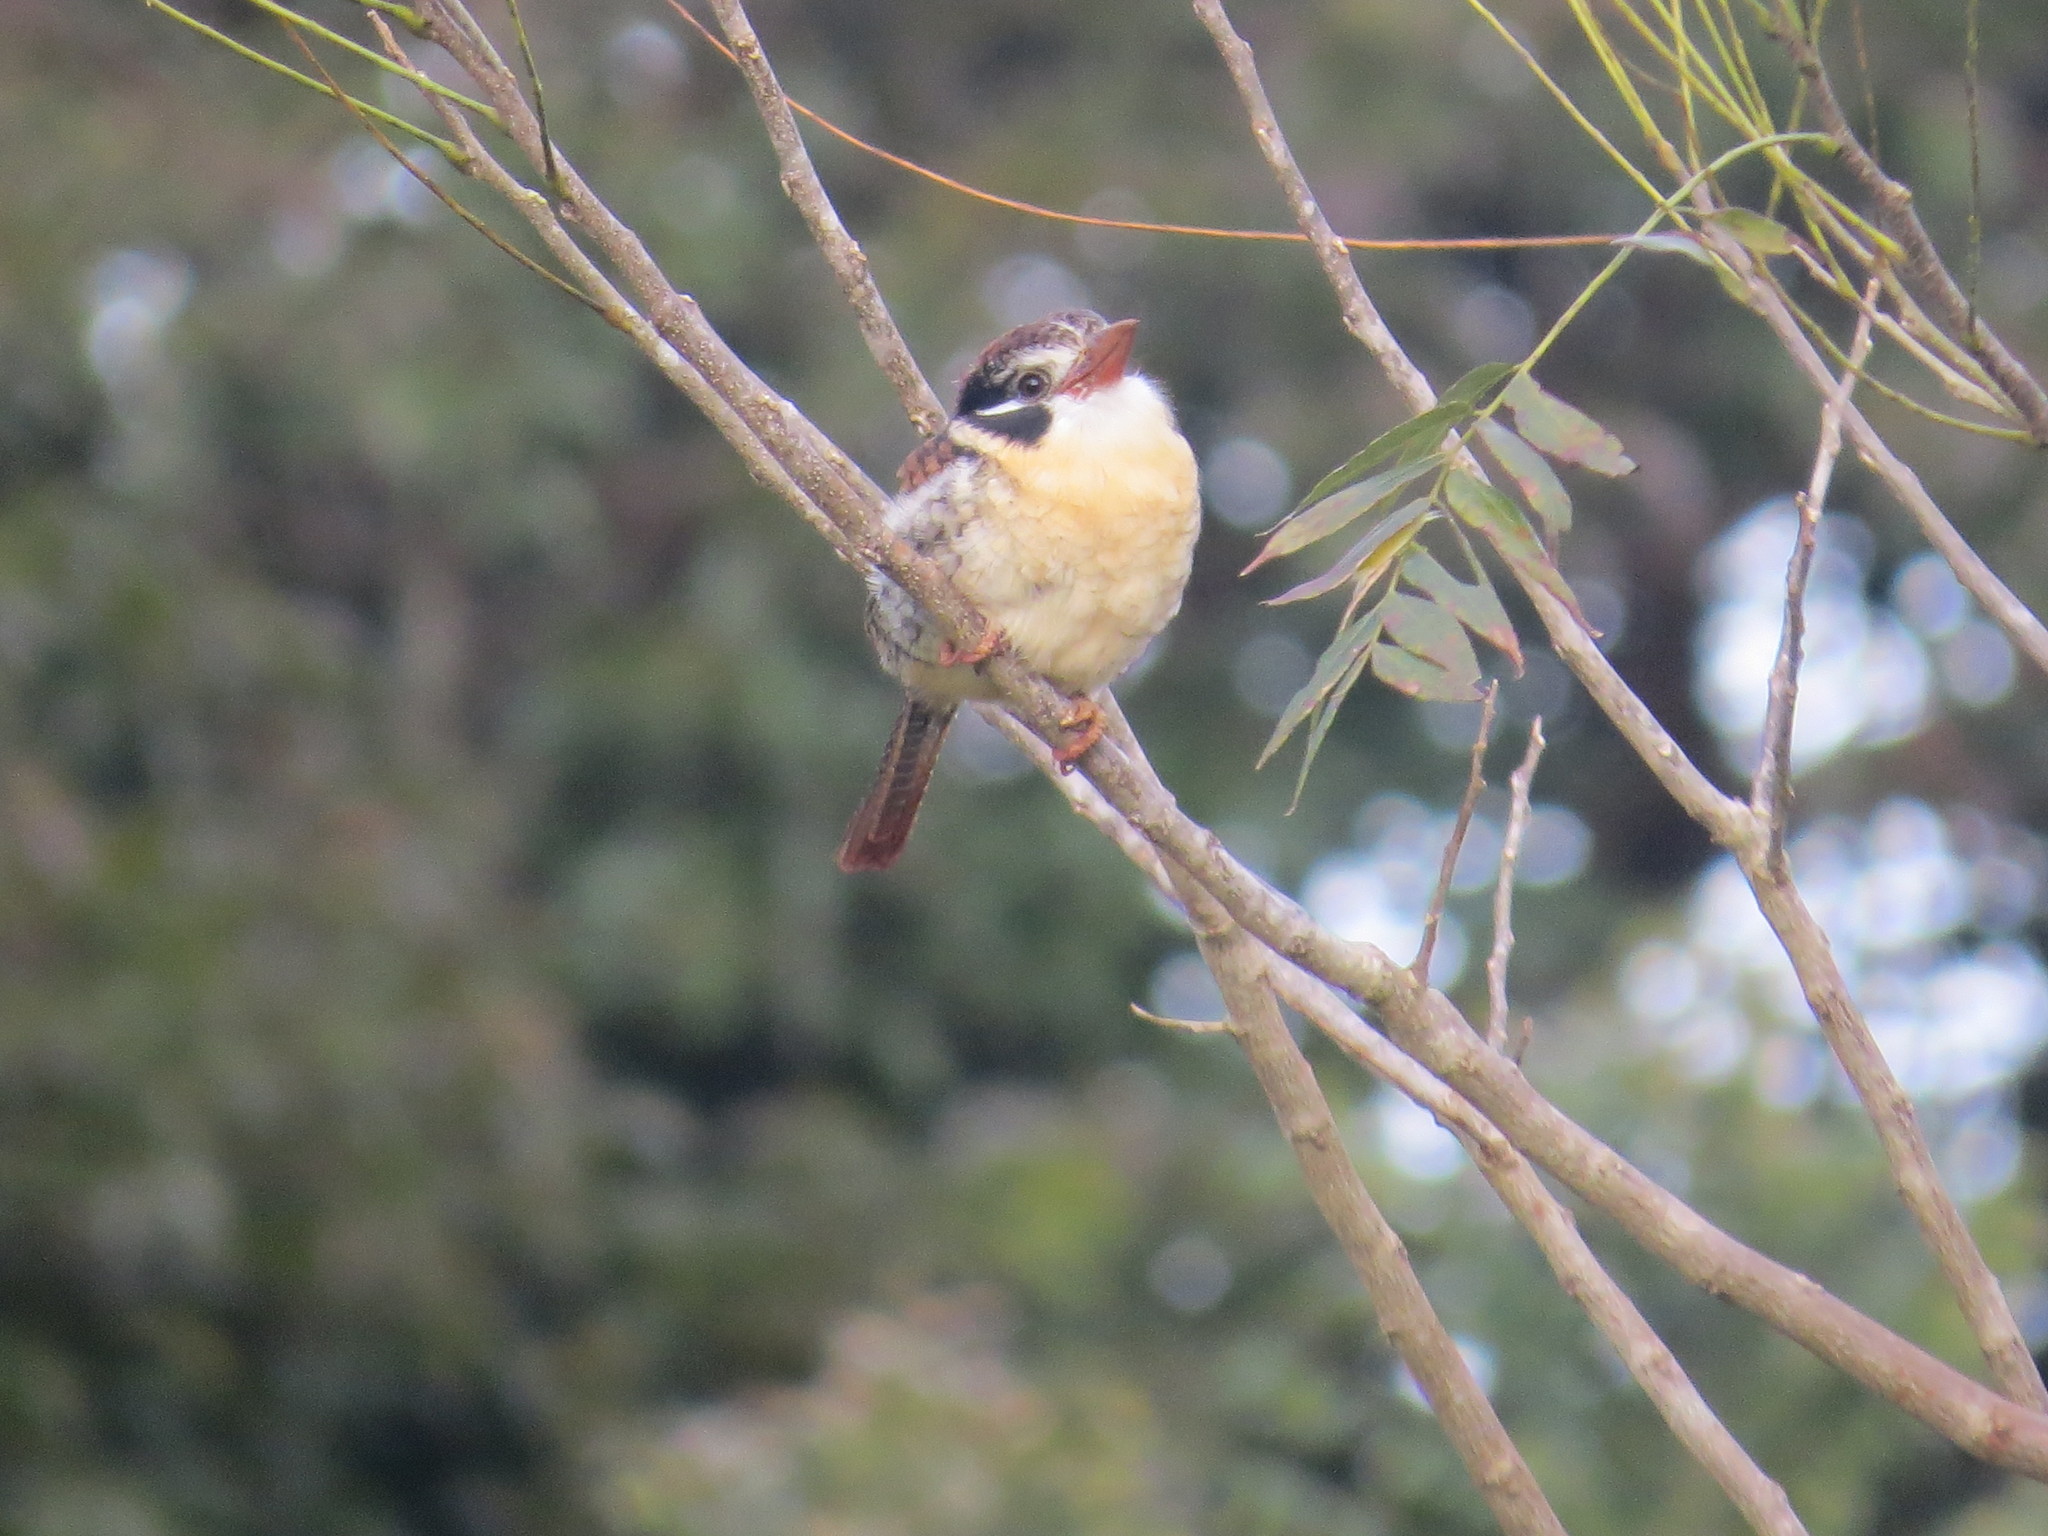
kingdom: Animalia
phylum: Chordata
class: Aves
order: Piciformes
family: Bucconidae
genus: Nystalus
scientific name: Nystalus chacuru
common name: White-eared puffbird
